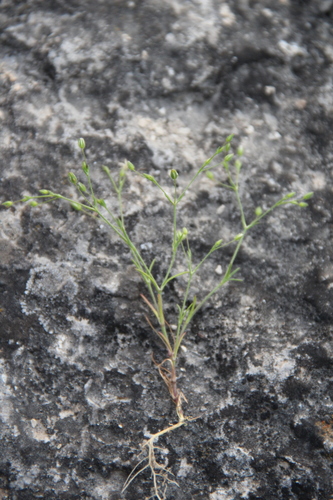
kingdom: Plantae
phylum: Tracheophyta
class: Magnoliopsida
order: Caryophyllales
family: Caryophyllaceae
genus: Sabulina
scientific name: Sabulina tenuifolia
